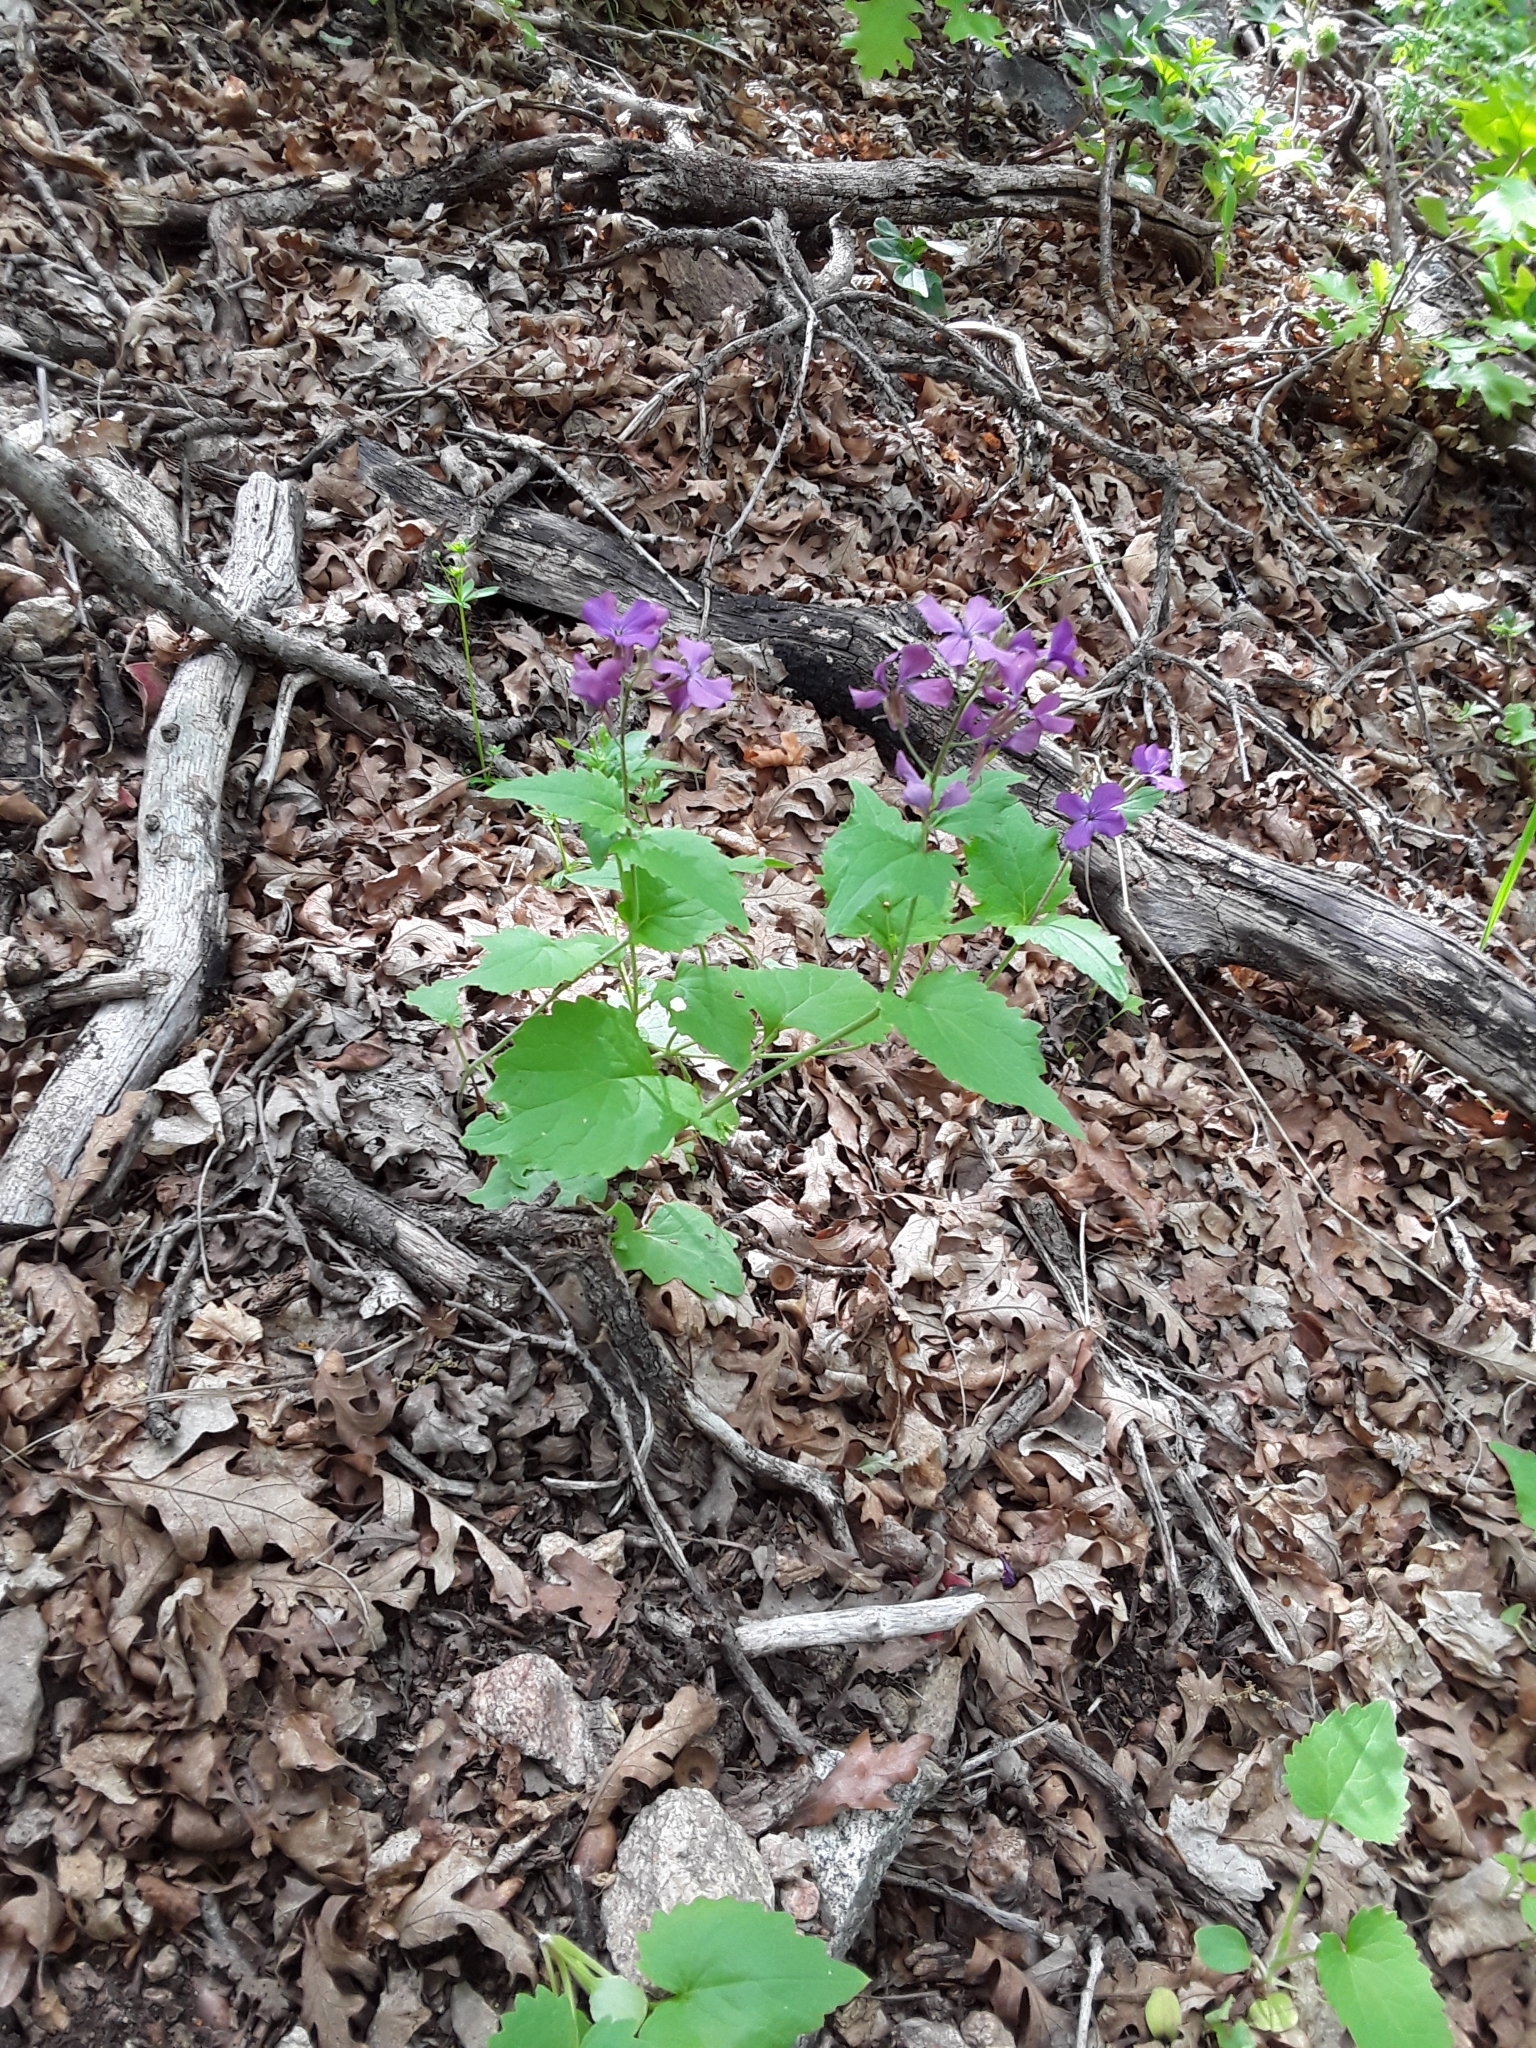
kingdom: Plantae
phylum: Tracheophyta
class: Magnoliopsida
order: Brassicales
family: Brassicaceae
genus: Lunaria
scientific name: Lunaria annua
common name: Honesty
